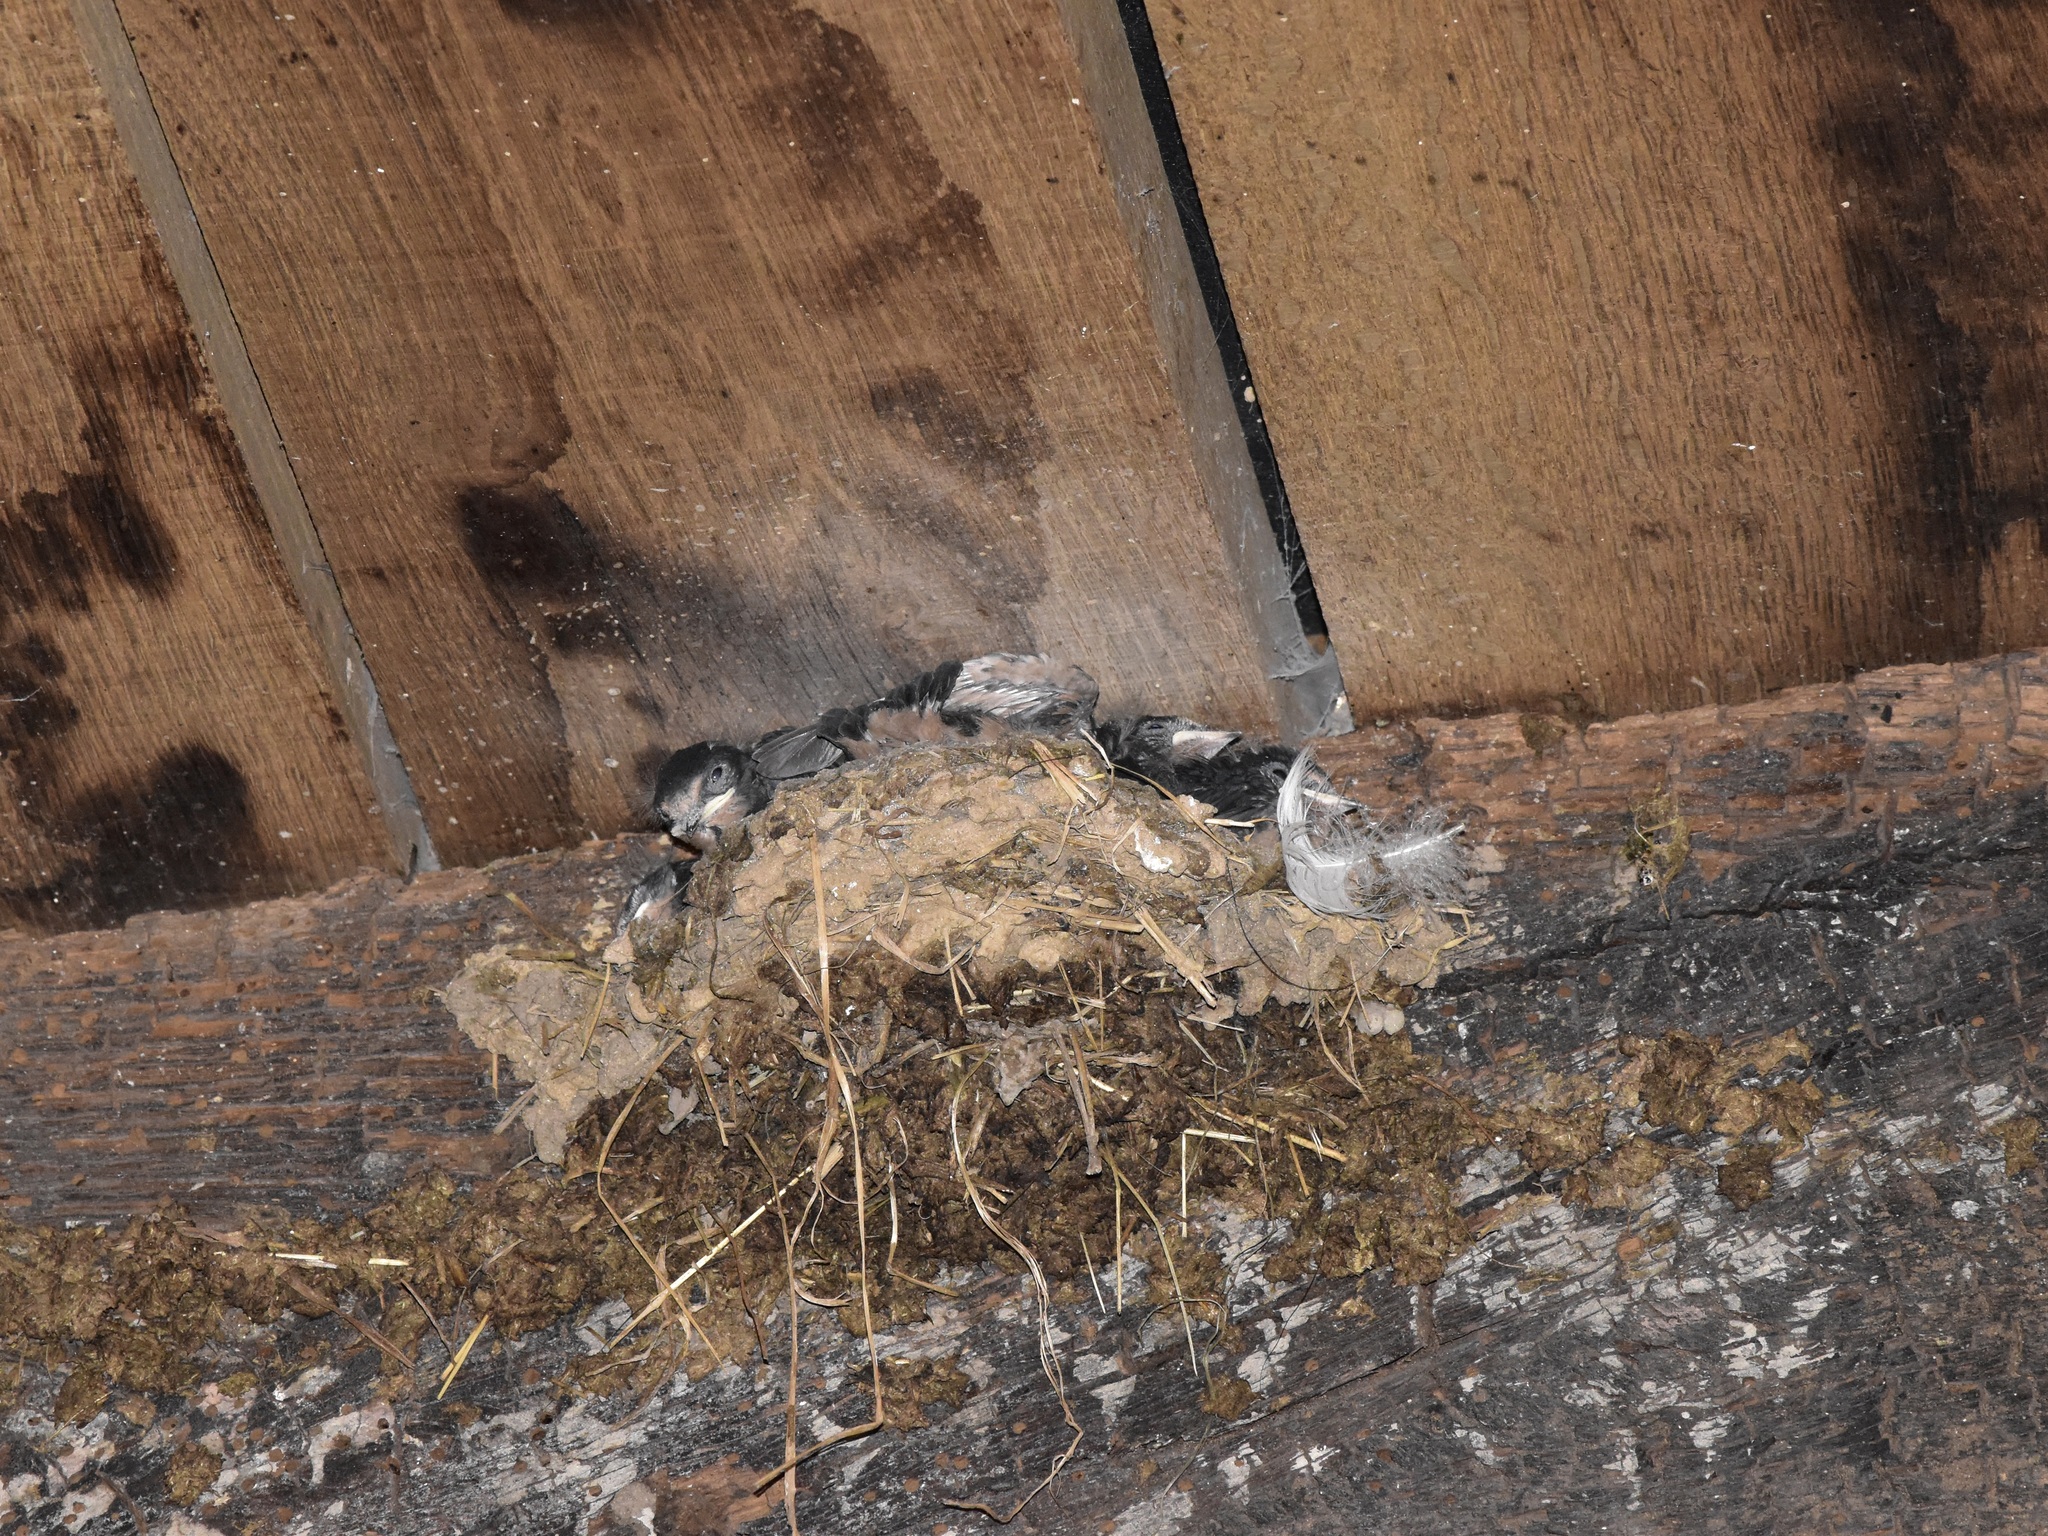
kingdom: Animalia
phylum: Chordata
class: Aves
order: Passeriformes
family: Hirundinidae
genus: Hirundo
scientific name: Hirundo rustica
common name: Barn swallow
